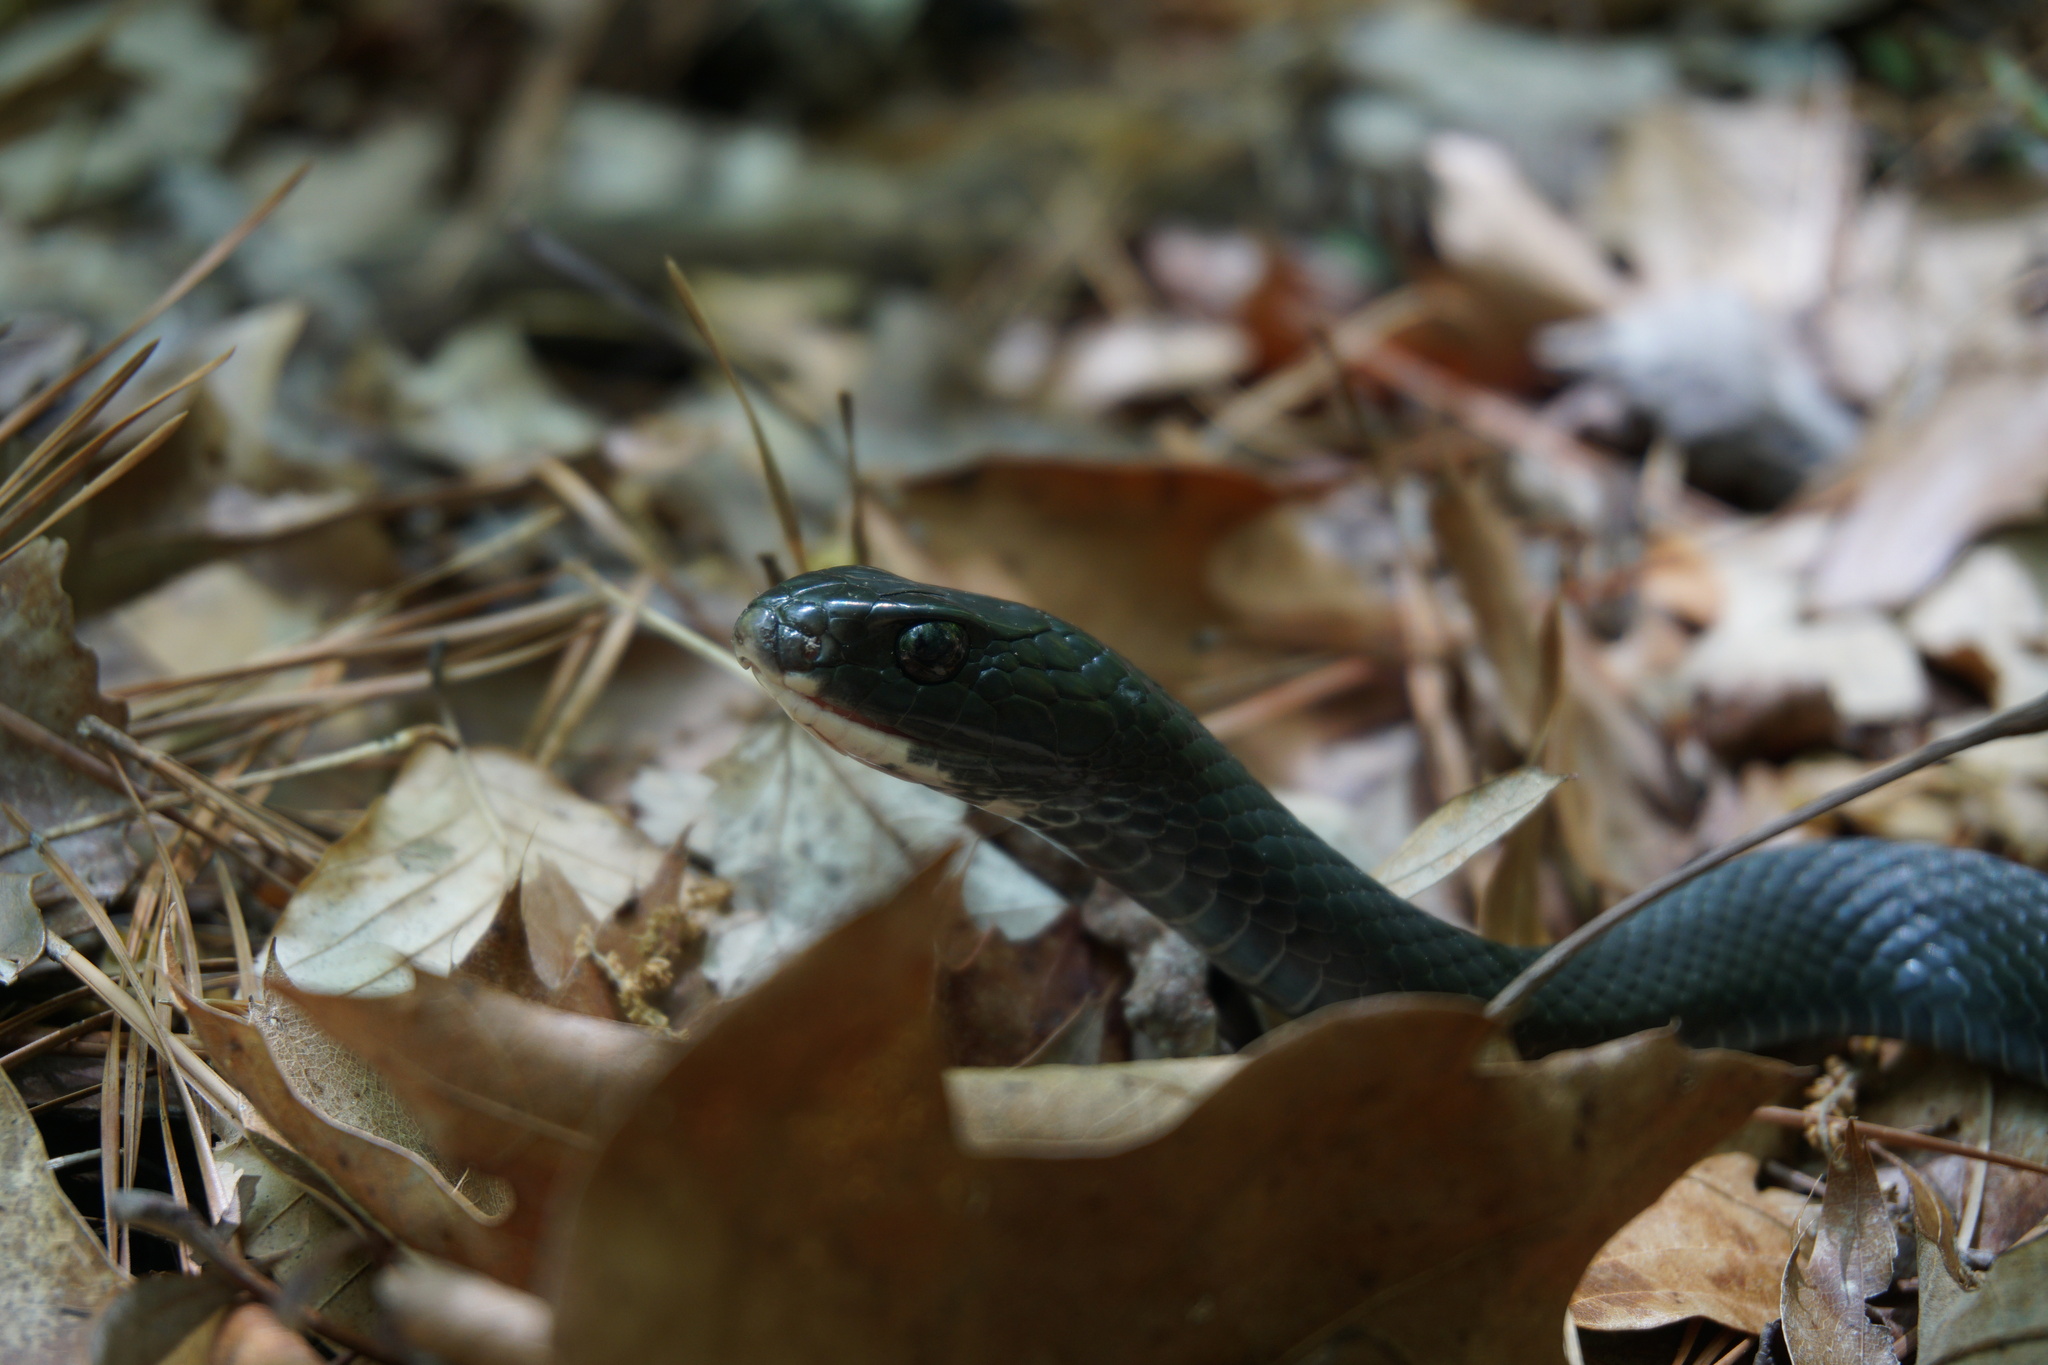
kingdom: Animalia
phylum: Chordata
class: Squamata
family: Colubridae
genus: Coluber
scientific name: Coluber constrictor
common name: Eastern racer
